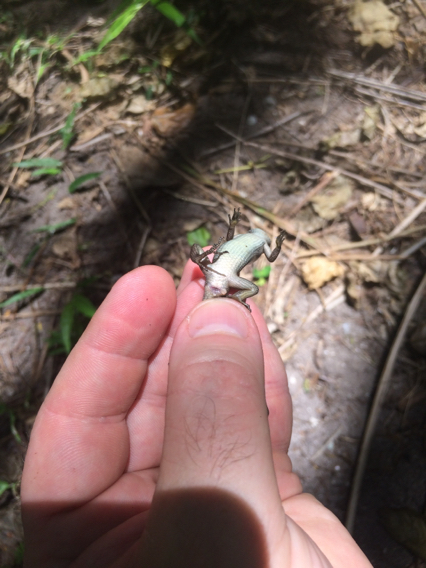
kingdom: Animalia
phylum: Chordata
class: Squamata
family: Scincidae
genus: Emoia
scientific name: Emoia caeruleocauda
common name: Pacific bluetail skink
